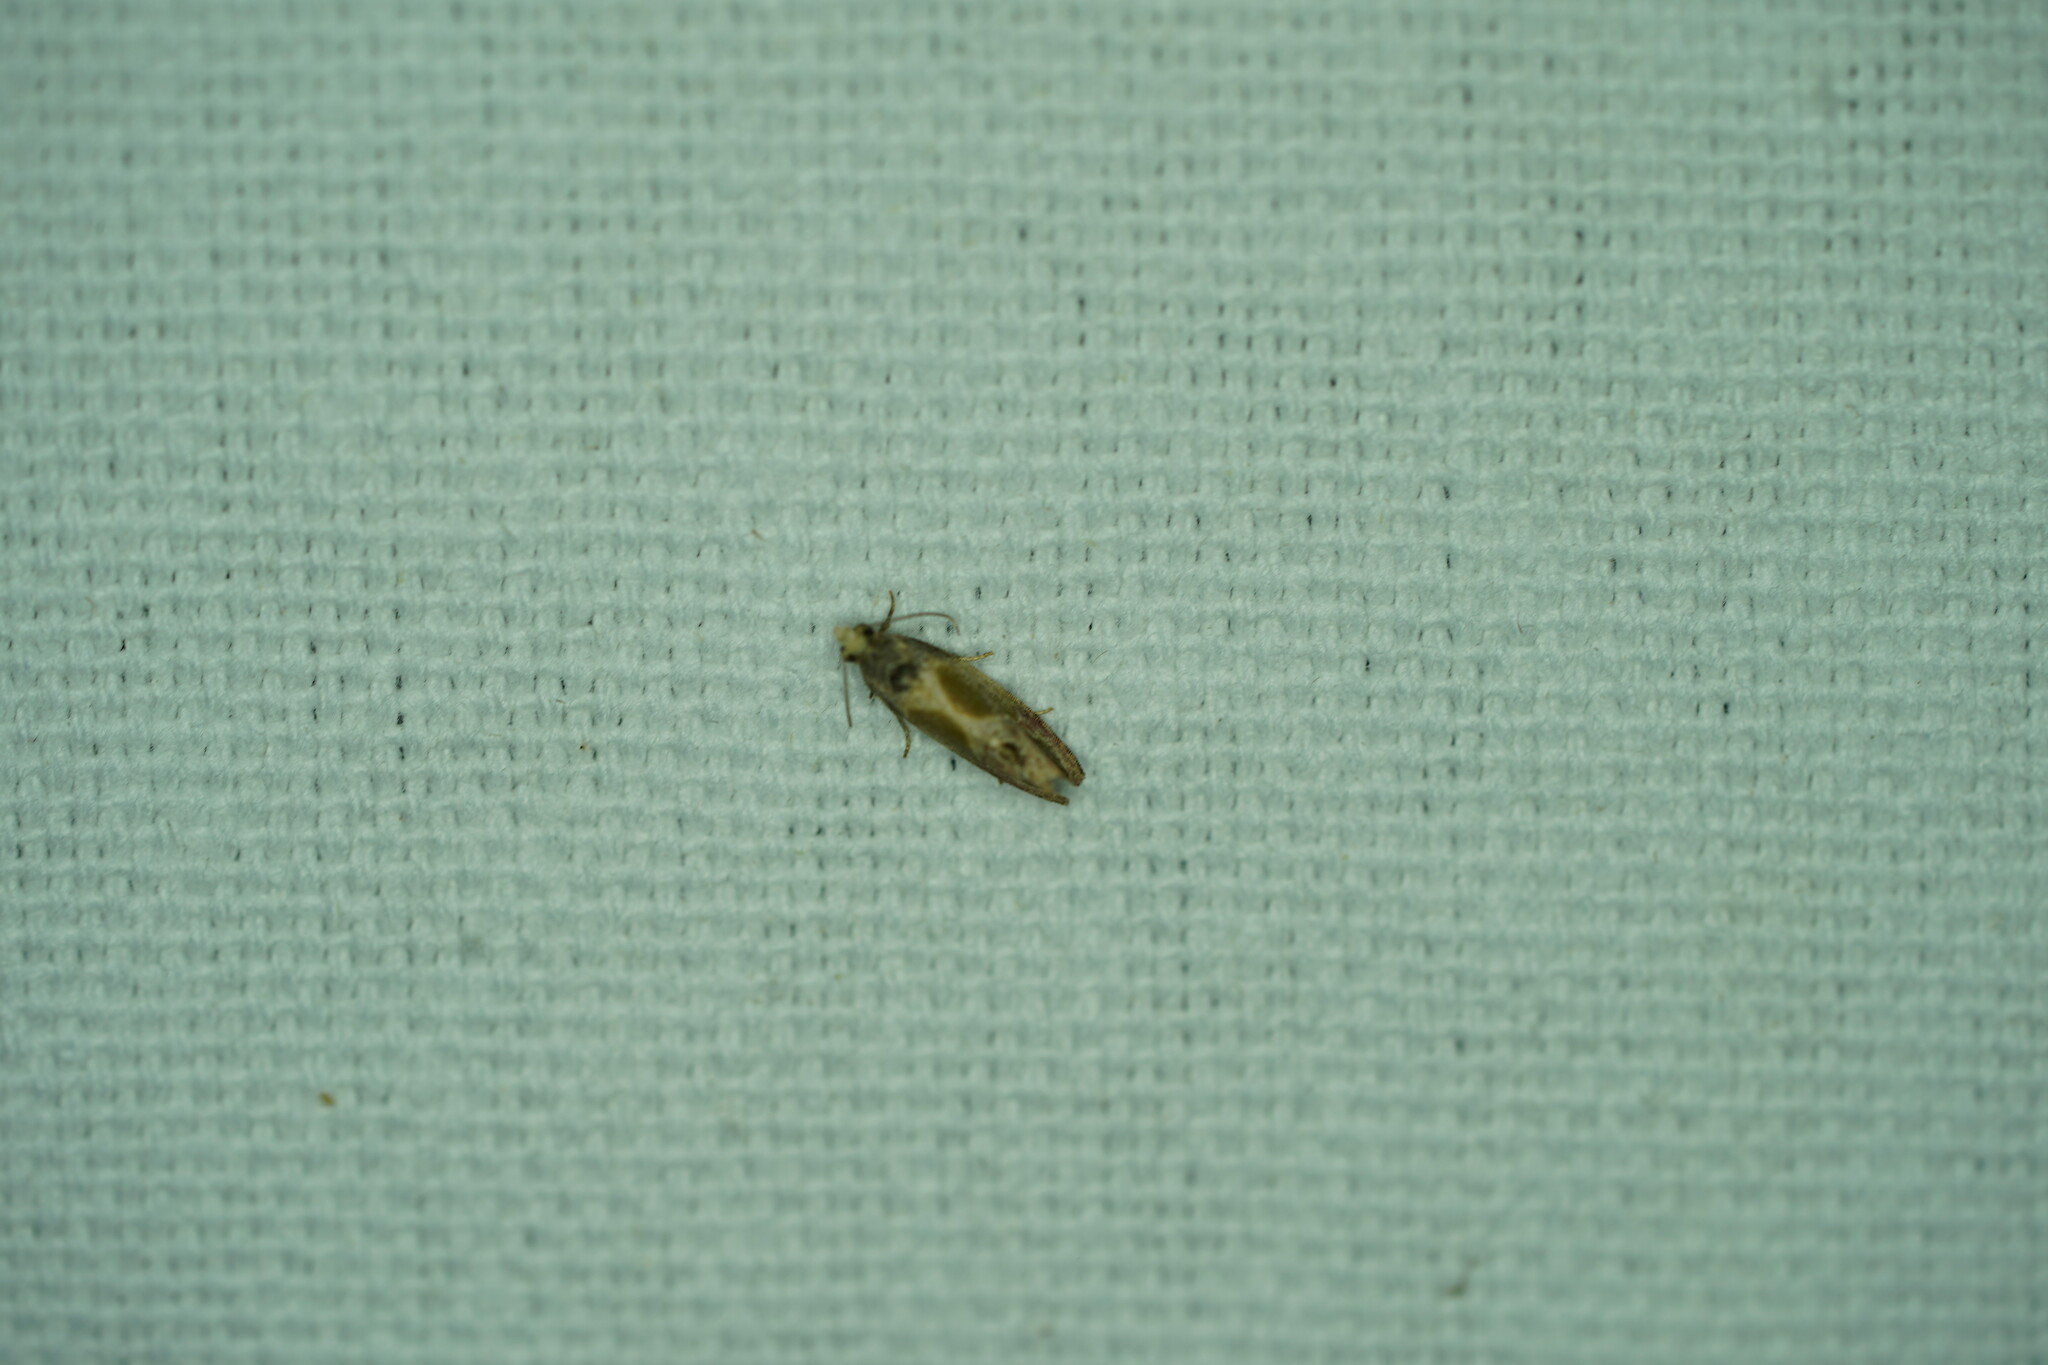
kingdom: Animalia
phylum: Arthropoda
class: Insecta
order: Lepidoptera
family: Tortricidae
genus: Eumarozia
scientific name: Eumarozia malachitana
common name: Sculptured moth
